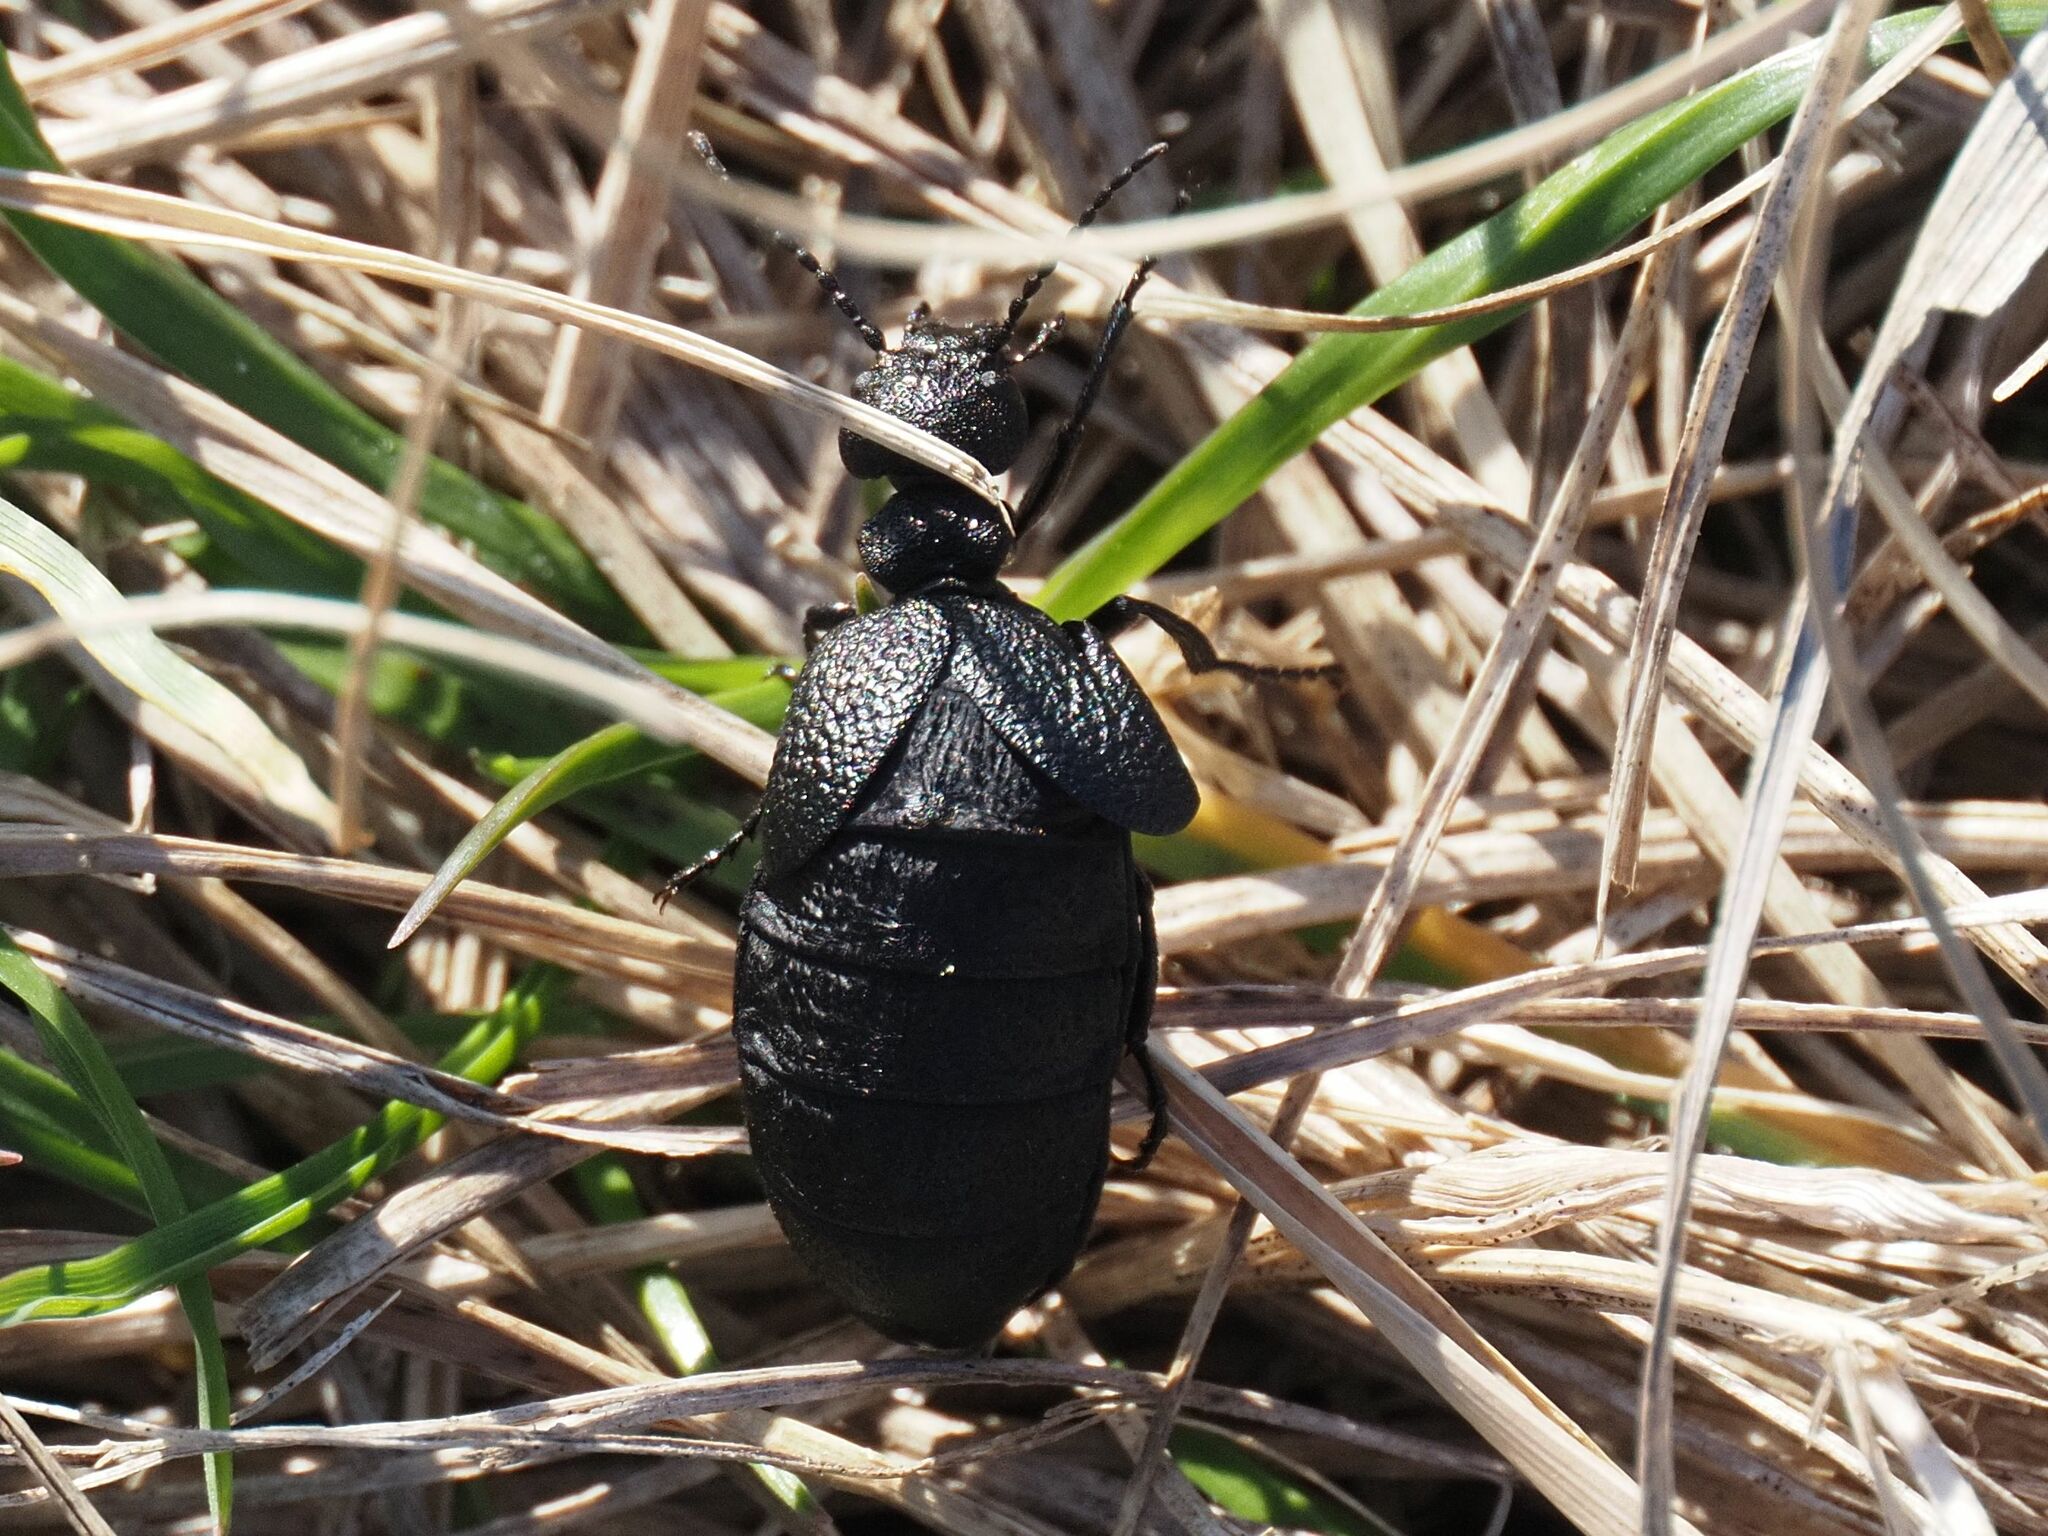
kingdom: Animalia
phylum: Arthropoda
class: Insecta
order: Coleoptera
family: Meloidae
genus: Meloe
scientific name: Meloe rugosus
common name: Rugged oil-beetle
